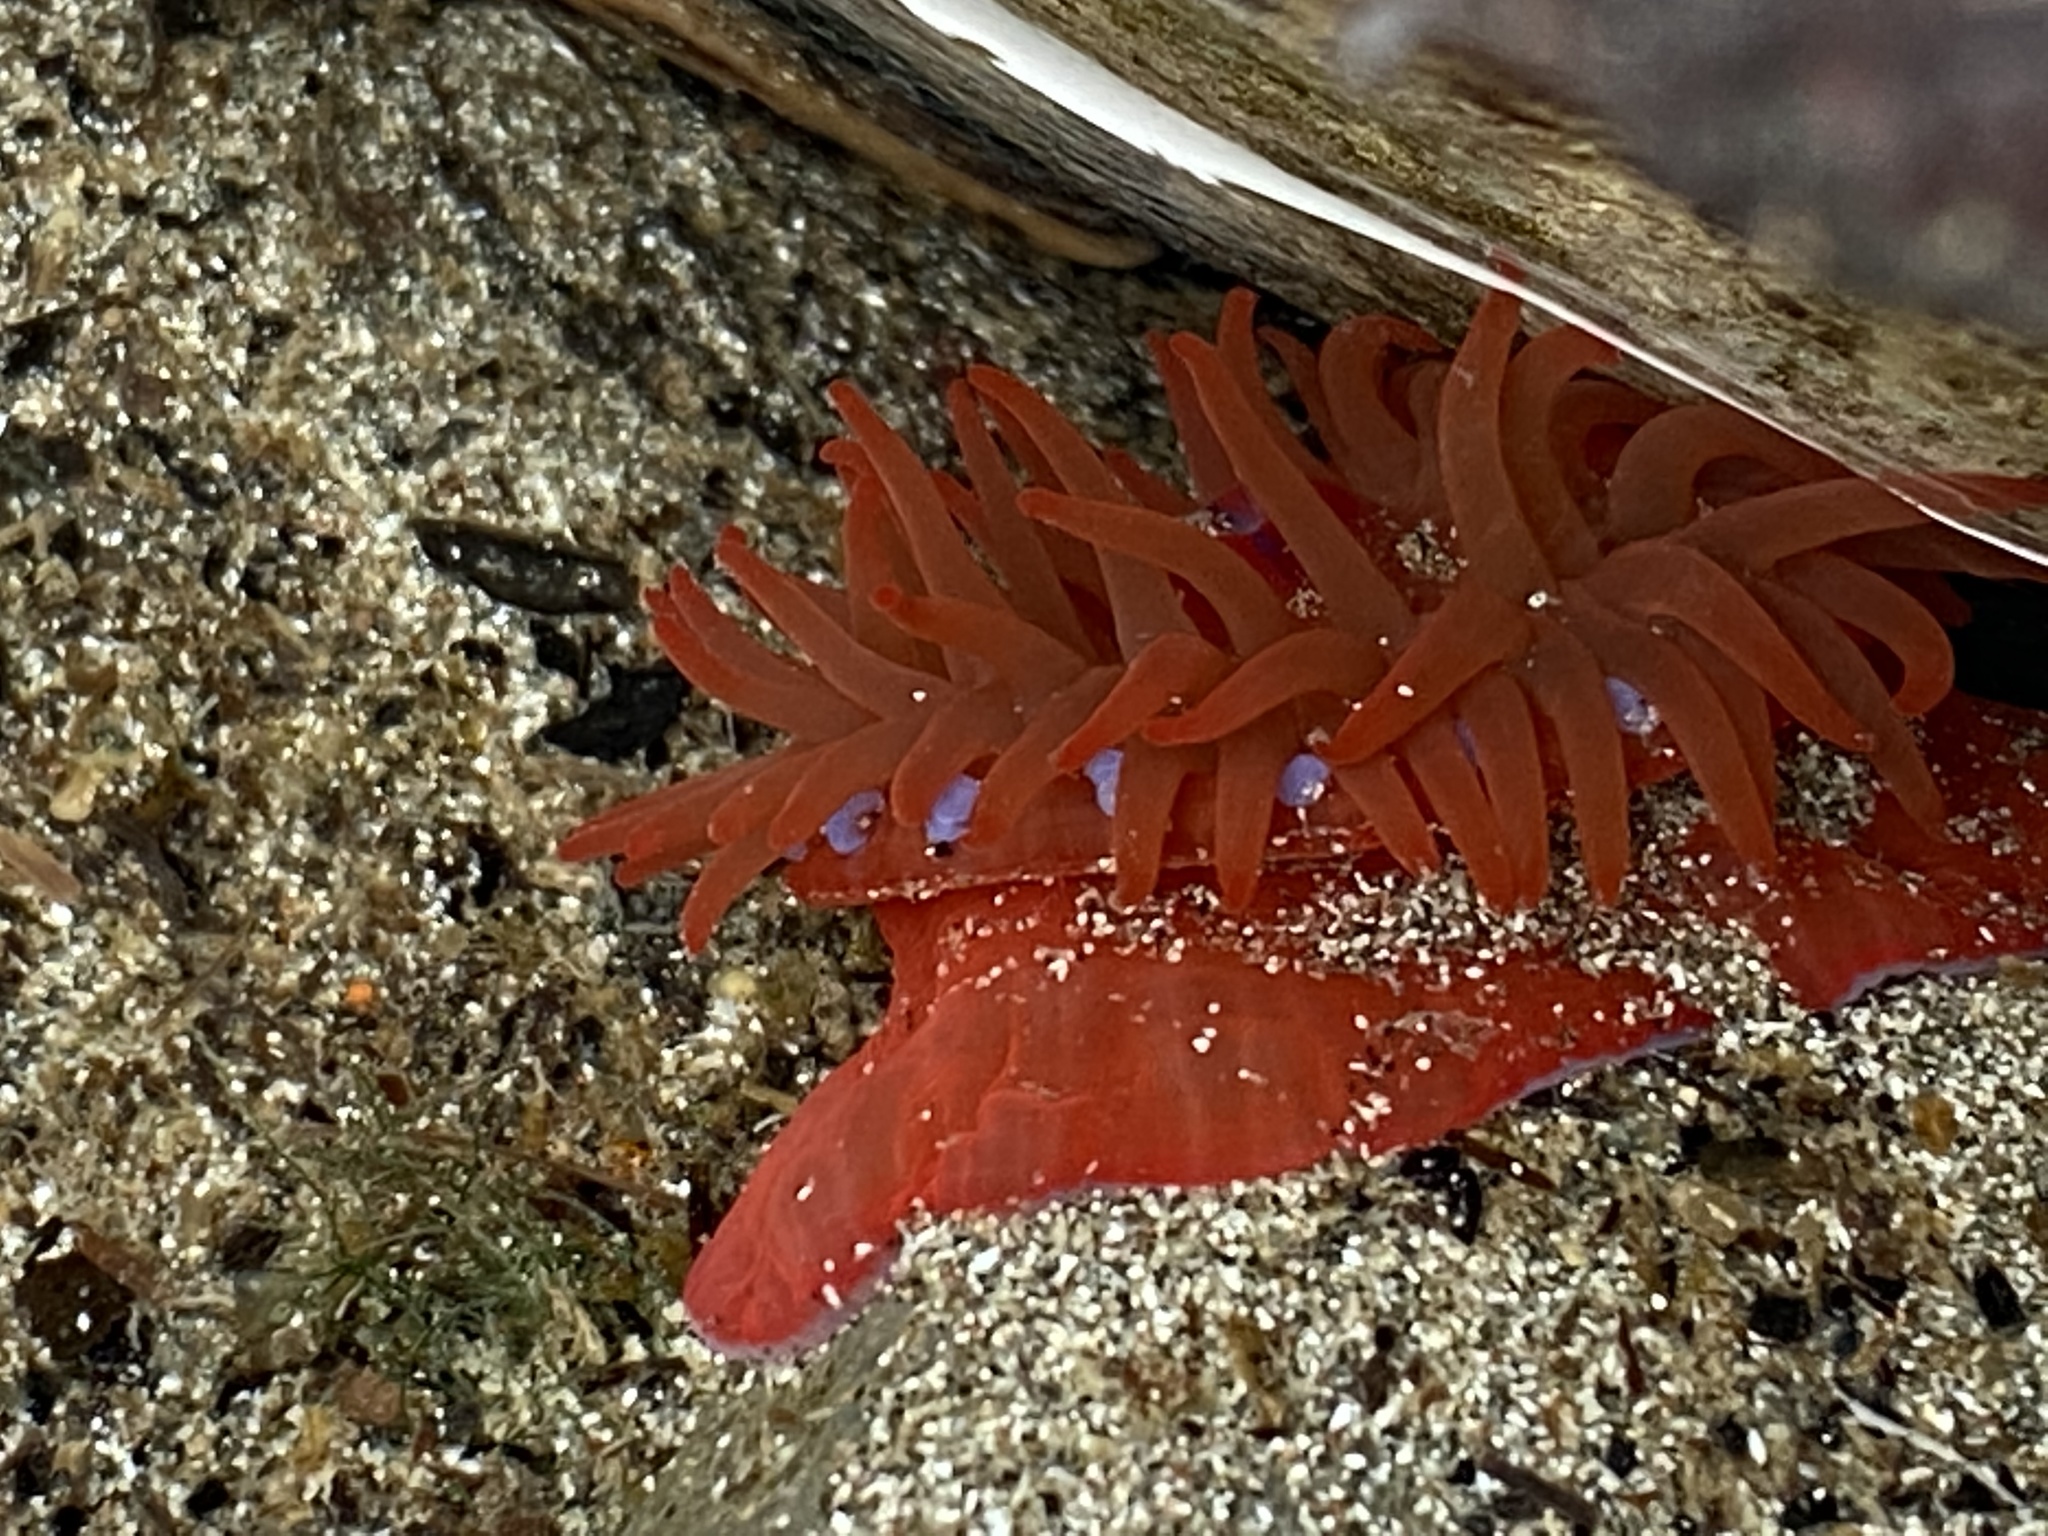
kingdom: Animalia
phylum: Cnidaria
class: Anthozoa
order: Actiniaria
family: Actiniidae
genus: Actinia
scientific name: Actinia equina
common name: Beadlet anemone
